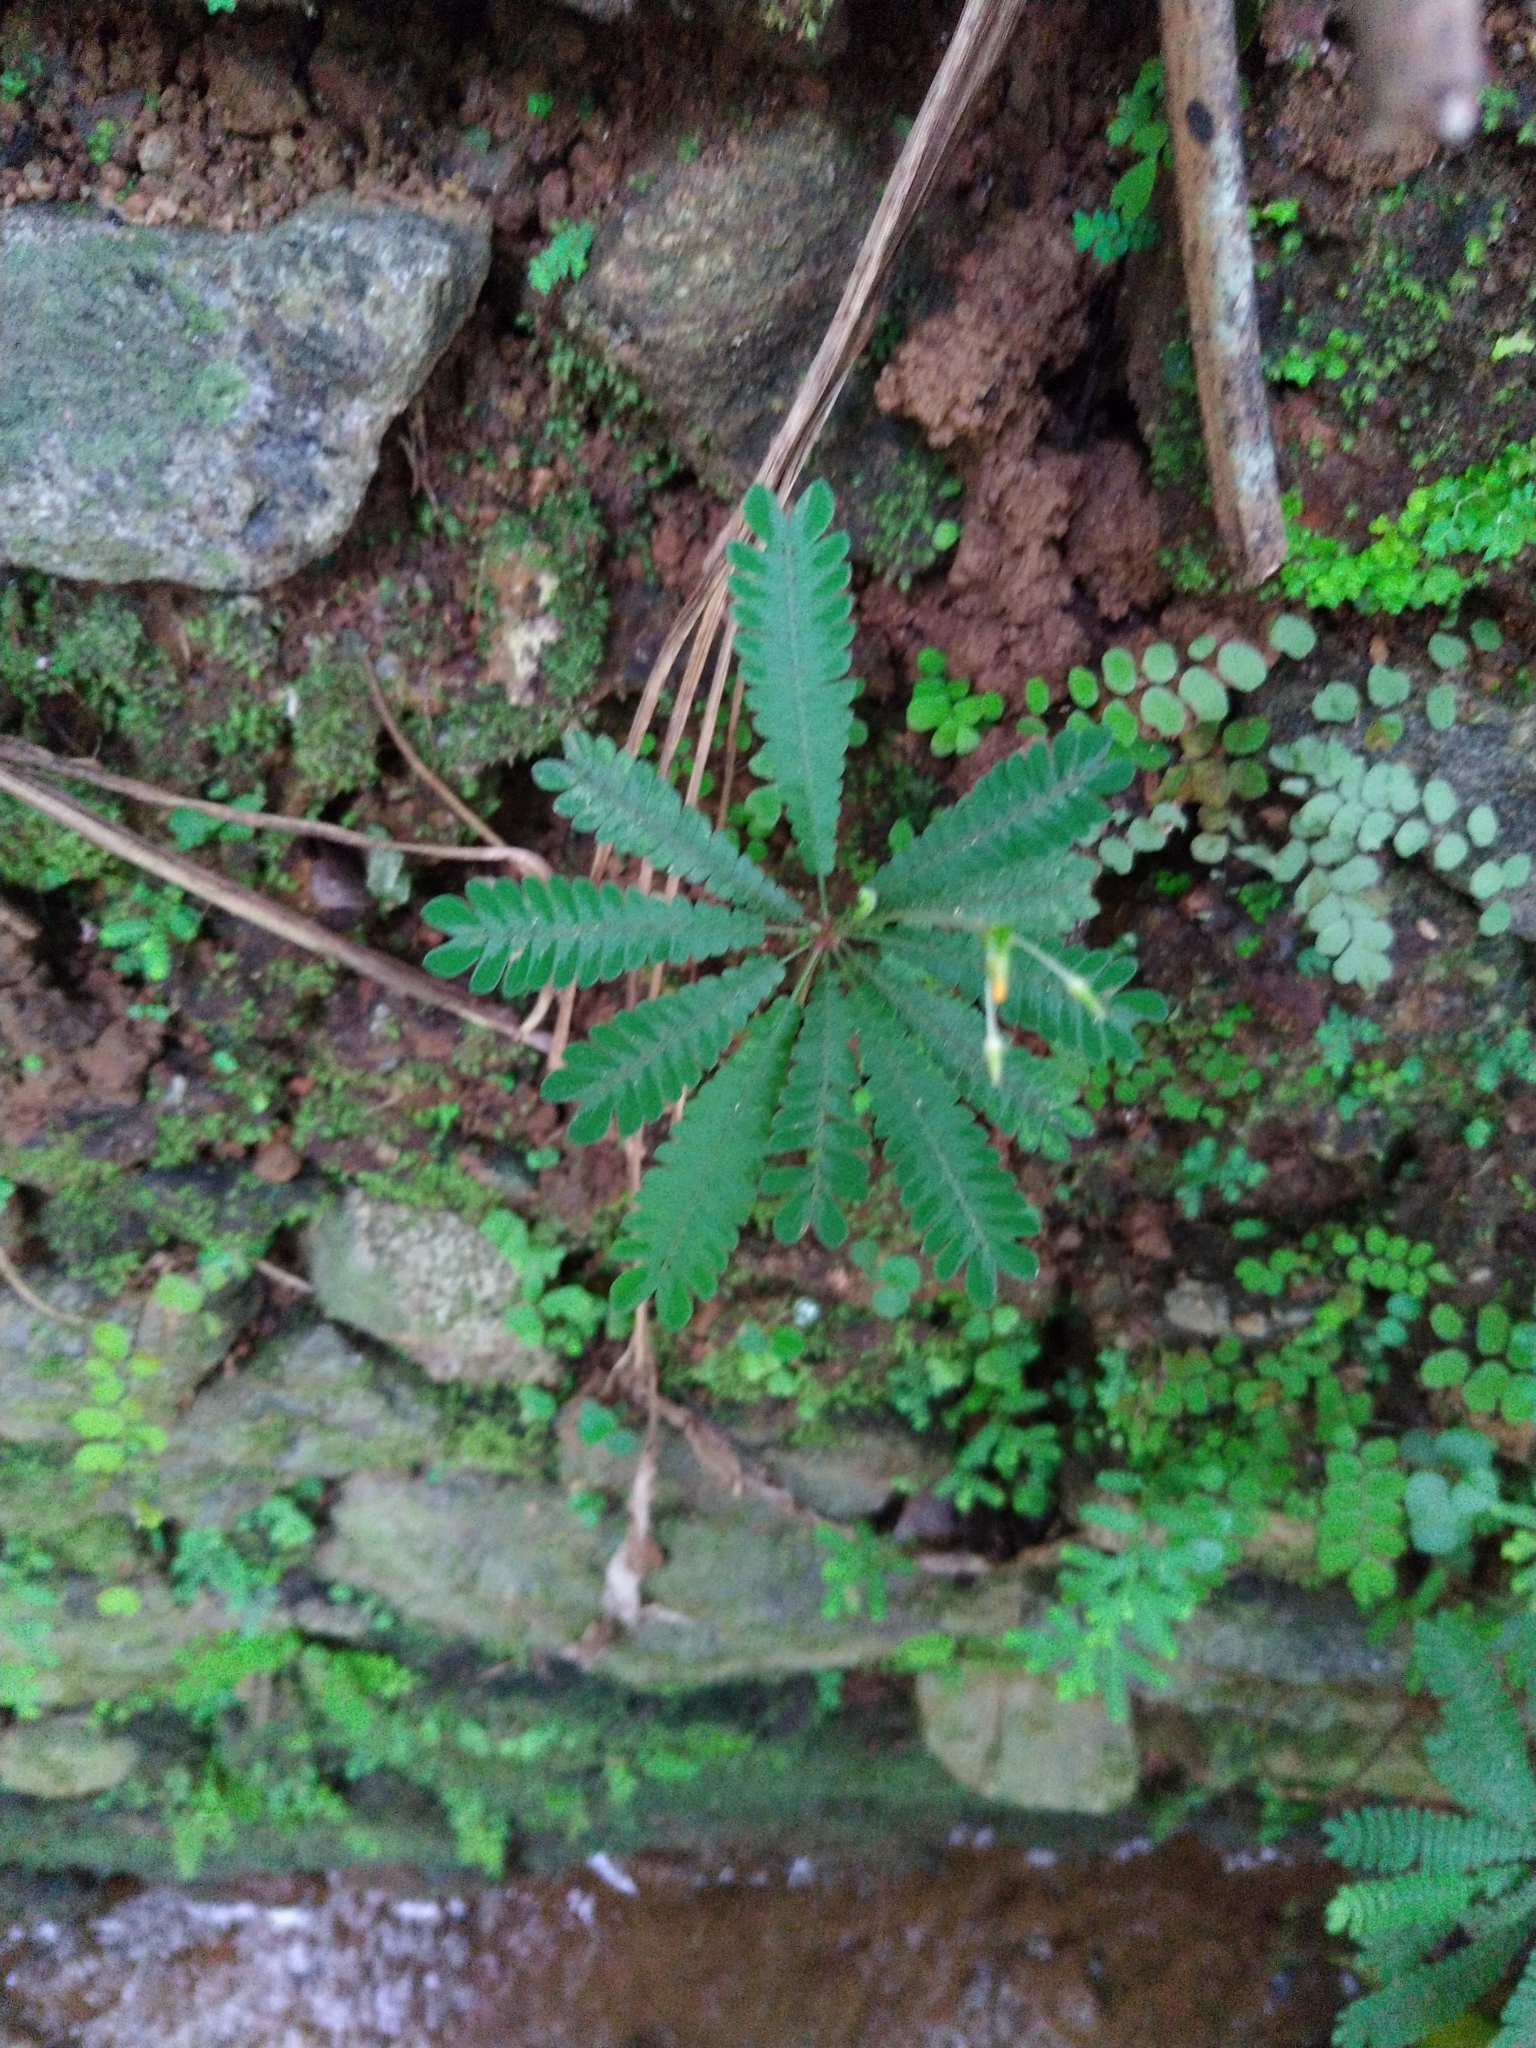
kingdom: Plantae
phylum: Tracheophyta
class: Magnoliopsida
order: Oxalidales
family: Oxalidaceae
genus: Biophytum
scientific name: Biophytum sensitivum
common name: Lifeplant
